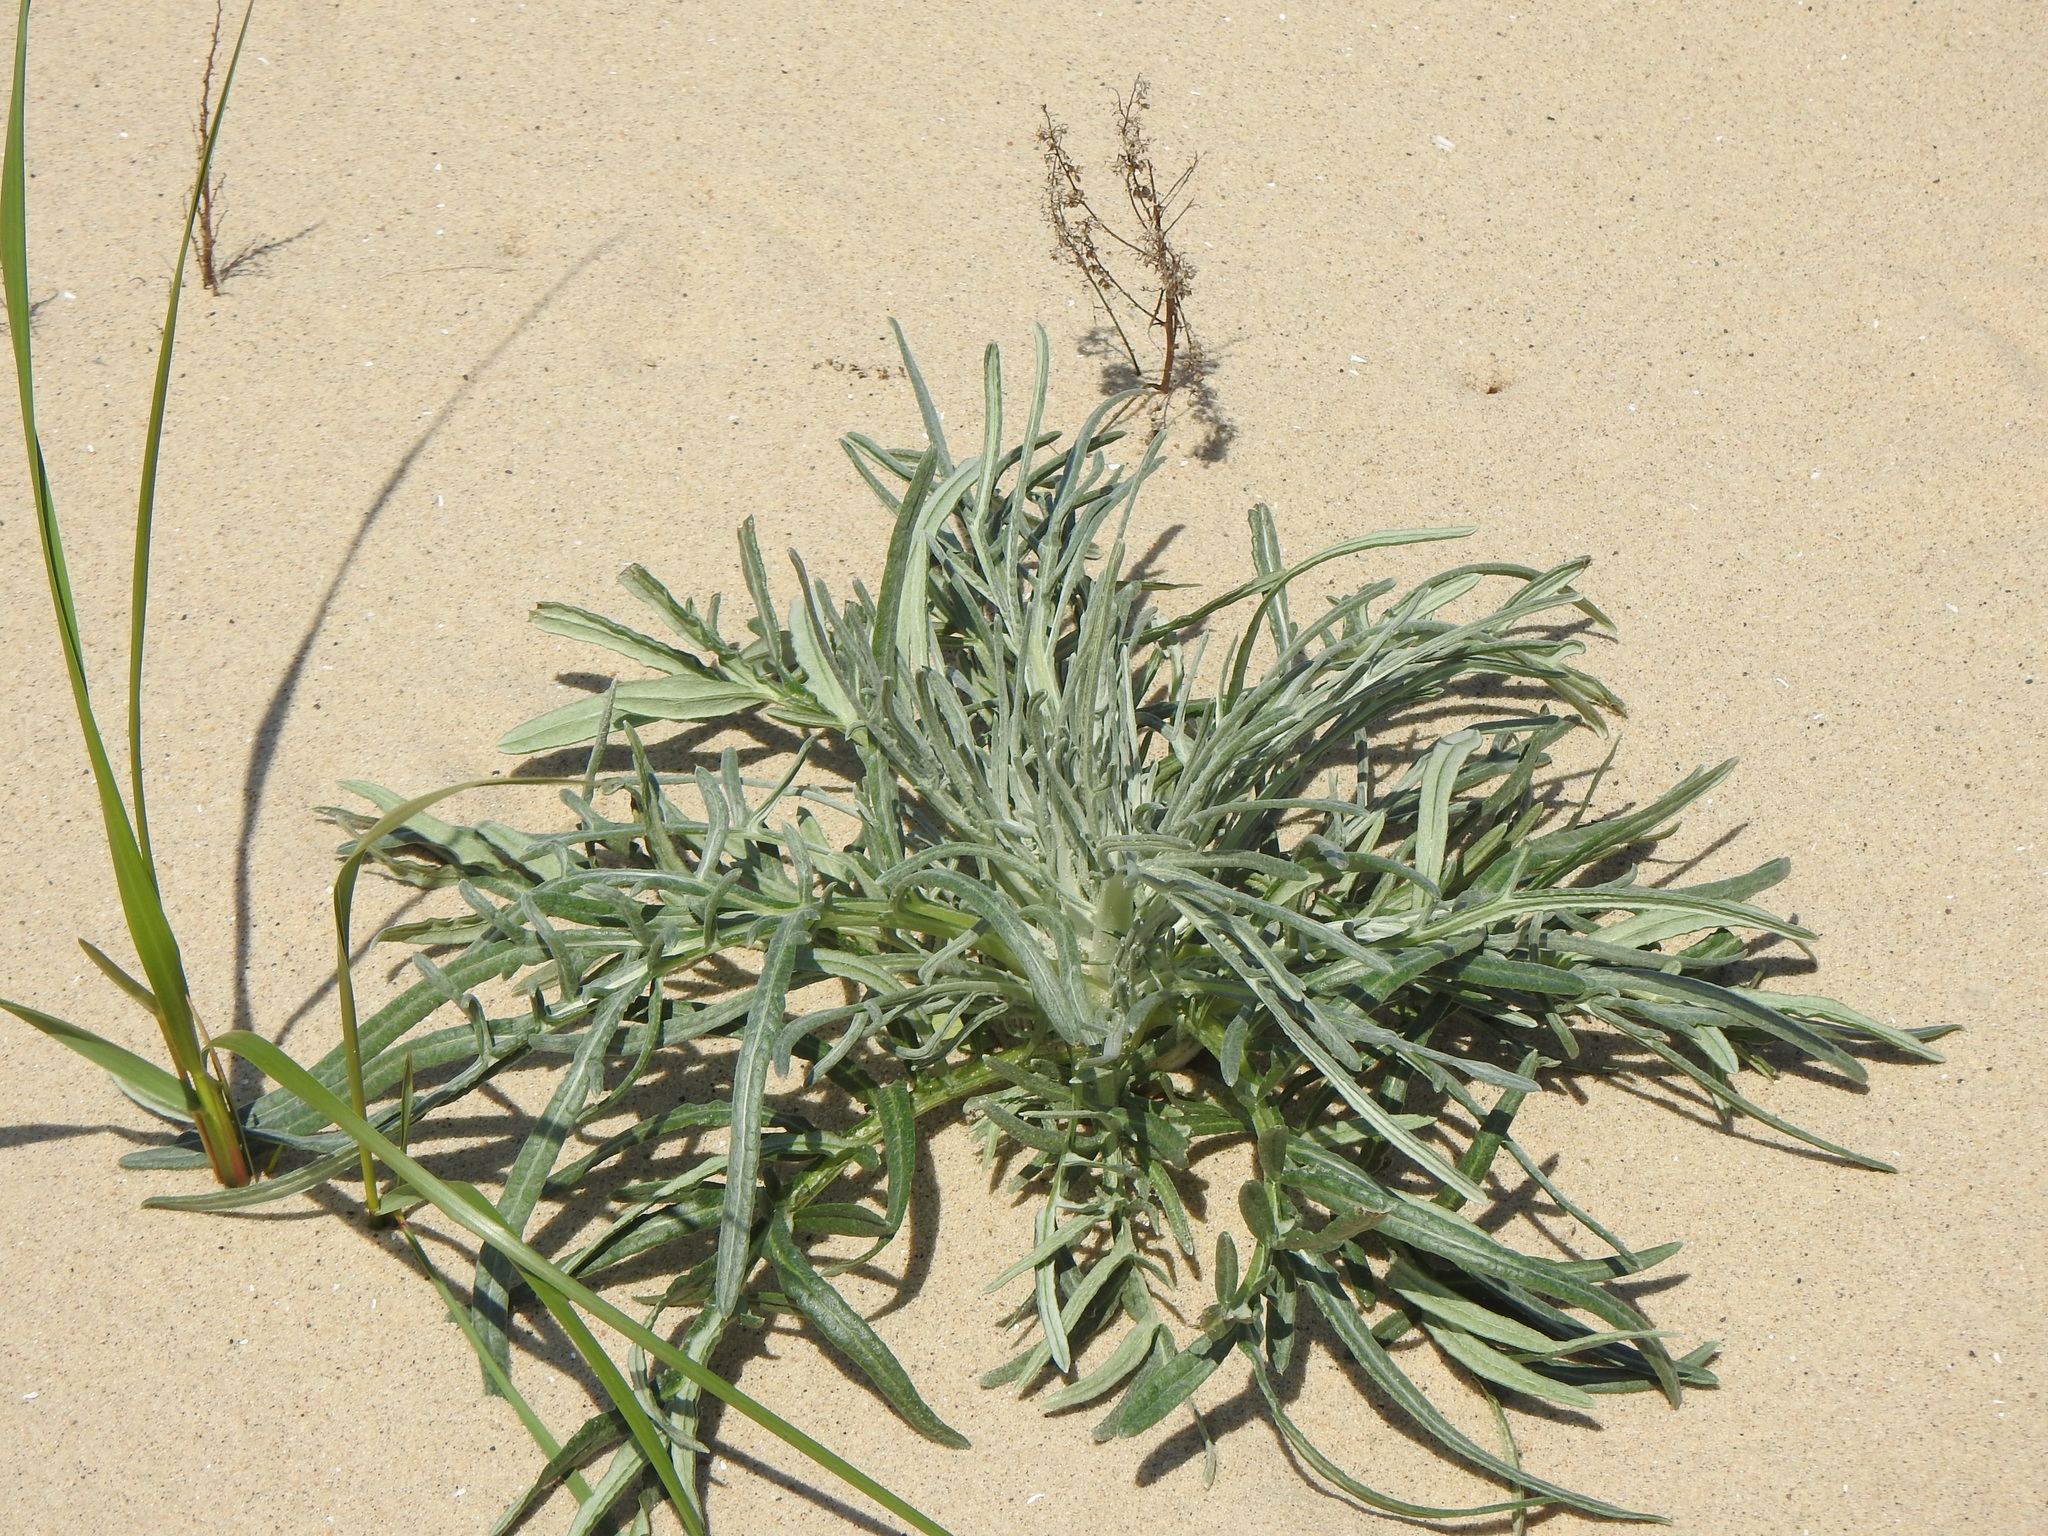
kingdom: Plantae
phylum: Tracheophyta
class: Magnoliopsida
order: Asterales
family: Asteraceae
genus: Cirsium
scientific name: Cirsium pitcheri
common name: Dune thistle
